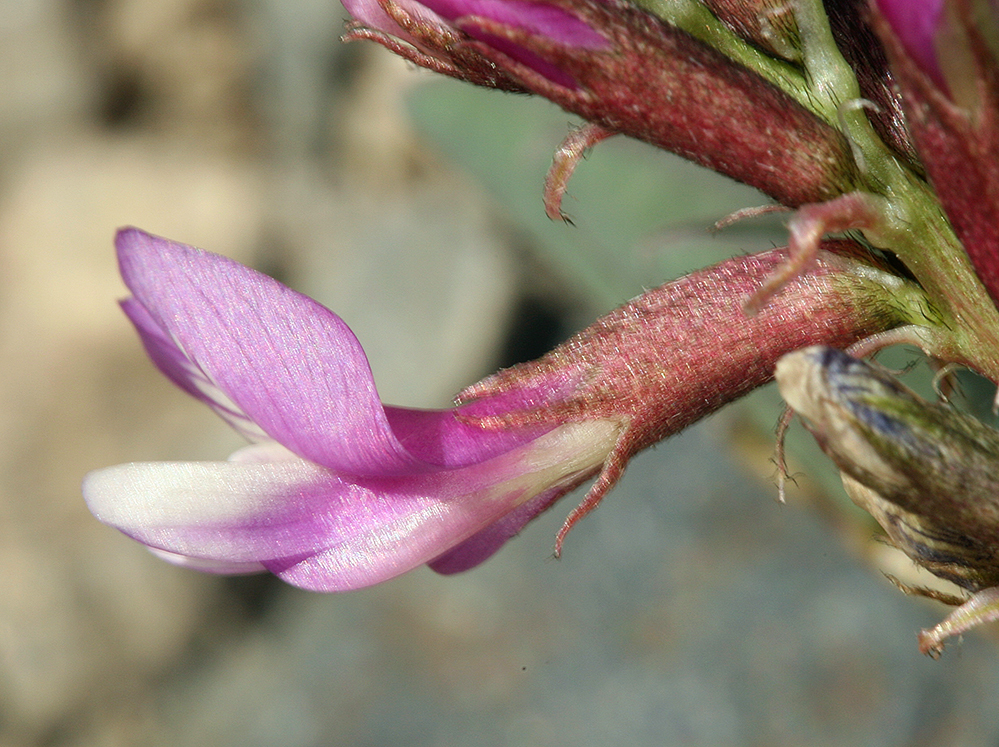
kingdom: Plantae
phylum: Tracheophyta
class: Magnoliopsida
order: Fabales
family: Fabaceae
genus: Astragalus
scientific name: Astragalus cimae
